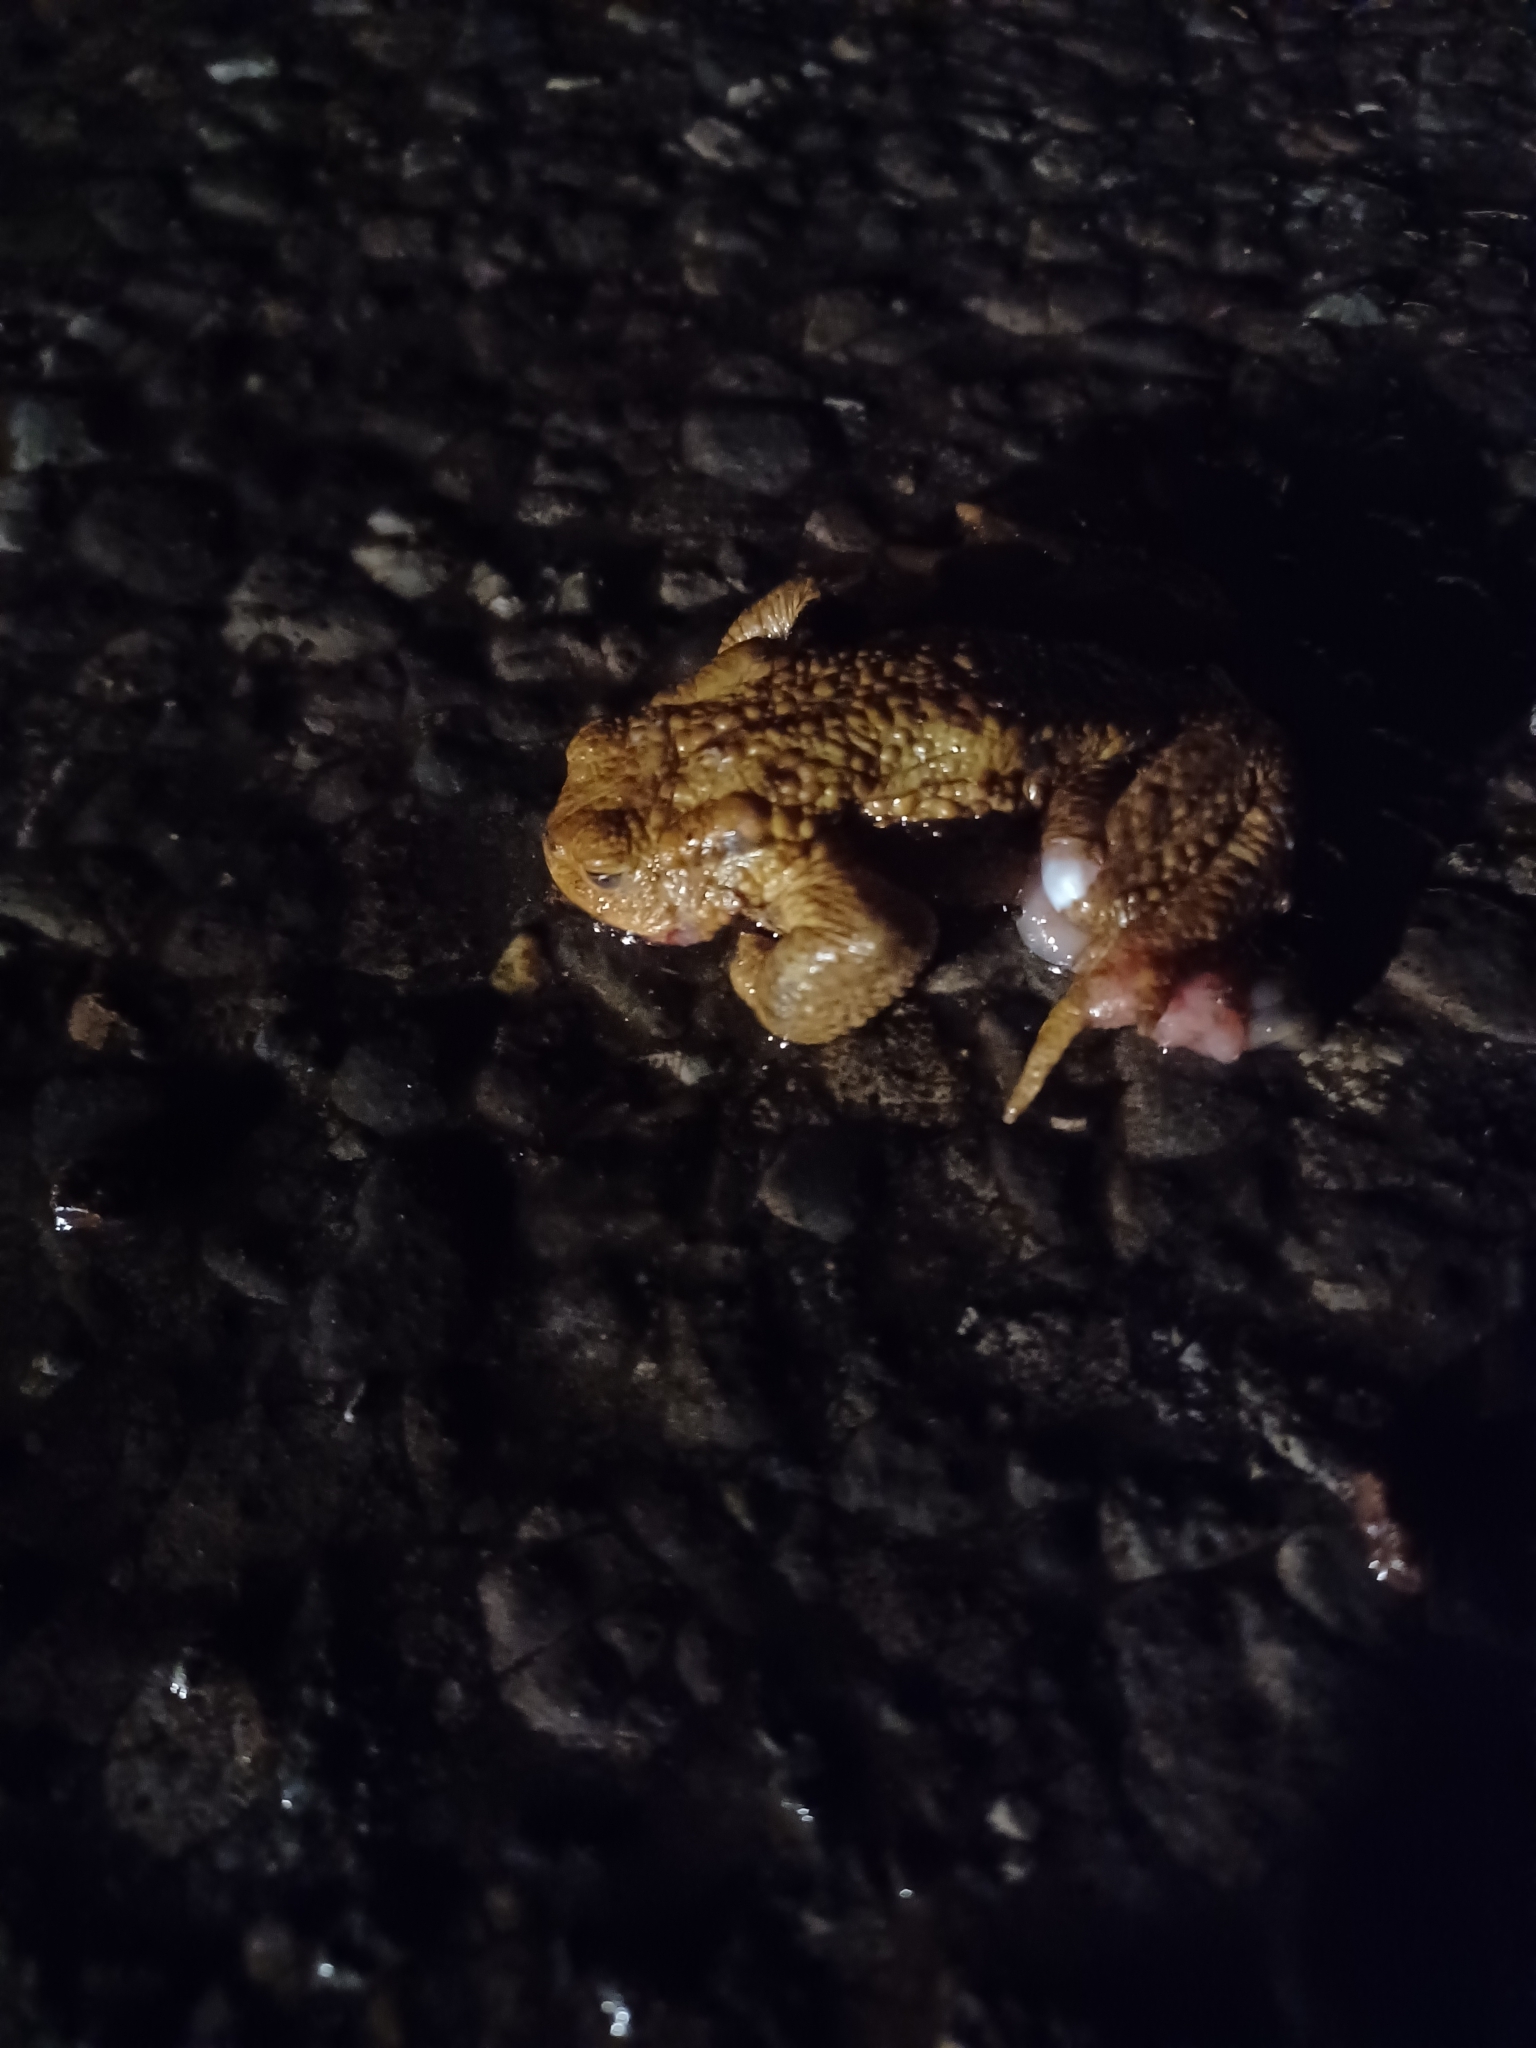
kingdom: Animalia
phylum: Chordata
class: Amphibia
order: Anura
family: Bufonidae
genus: Bufo
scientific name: Bufo bufo
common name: Common toad
